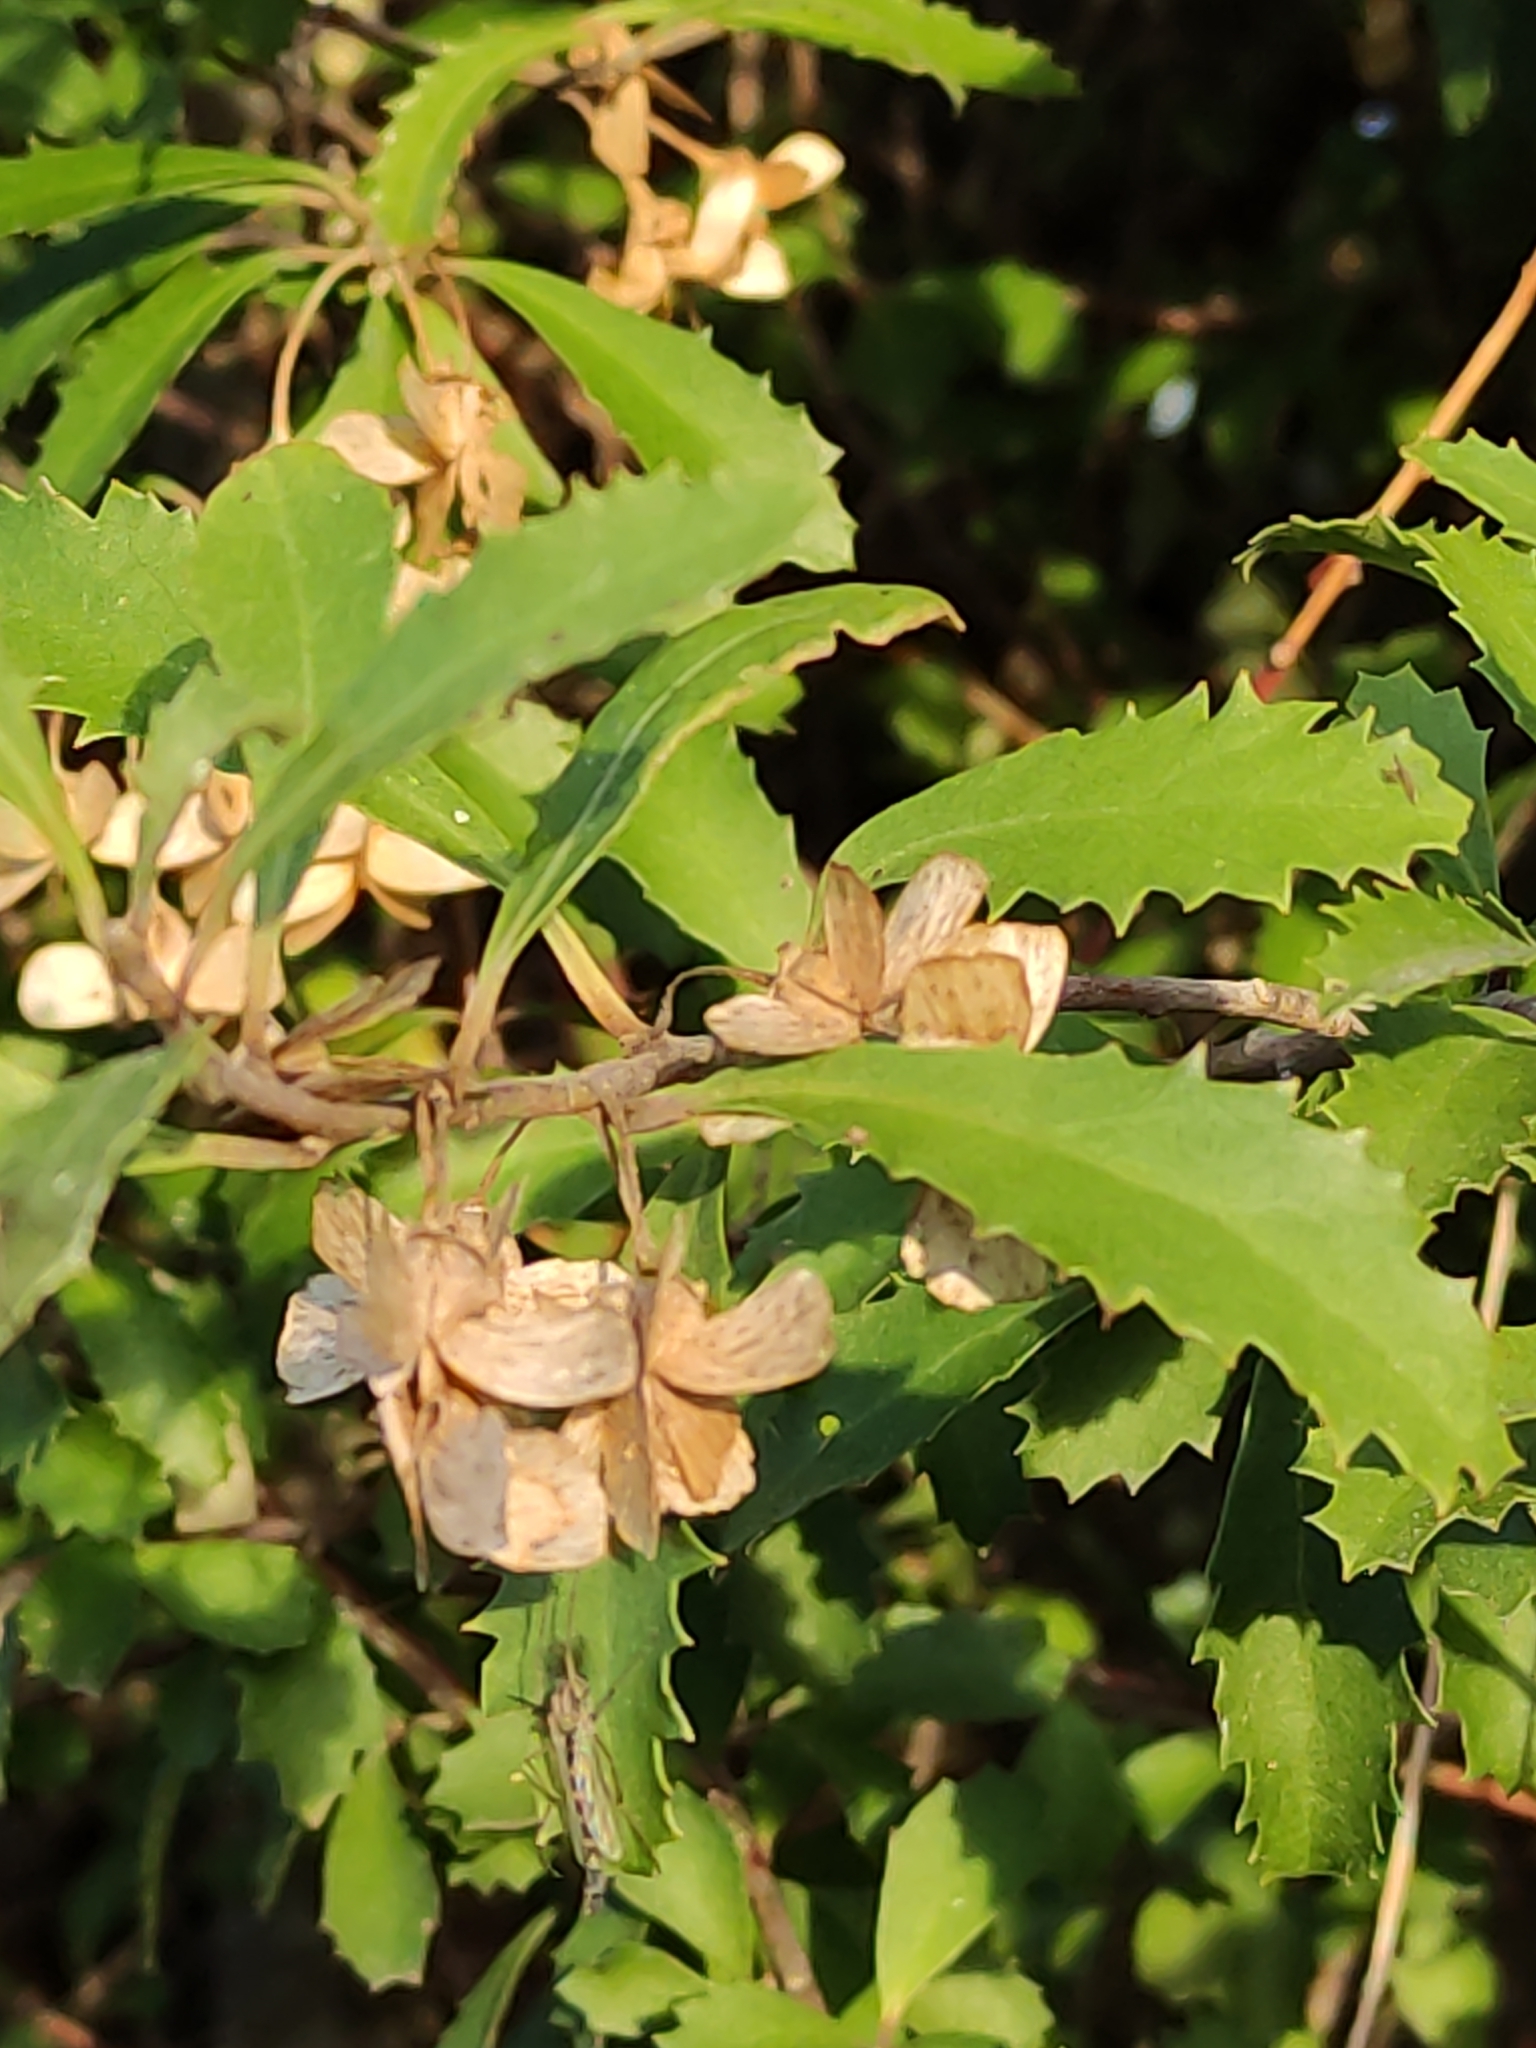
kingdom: Plantae
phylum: Tracheophyta
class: Magnoliopsida
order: Malvales
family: Malvaceae
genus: Hoheria
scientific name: Hoheria angustifolia
